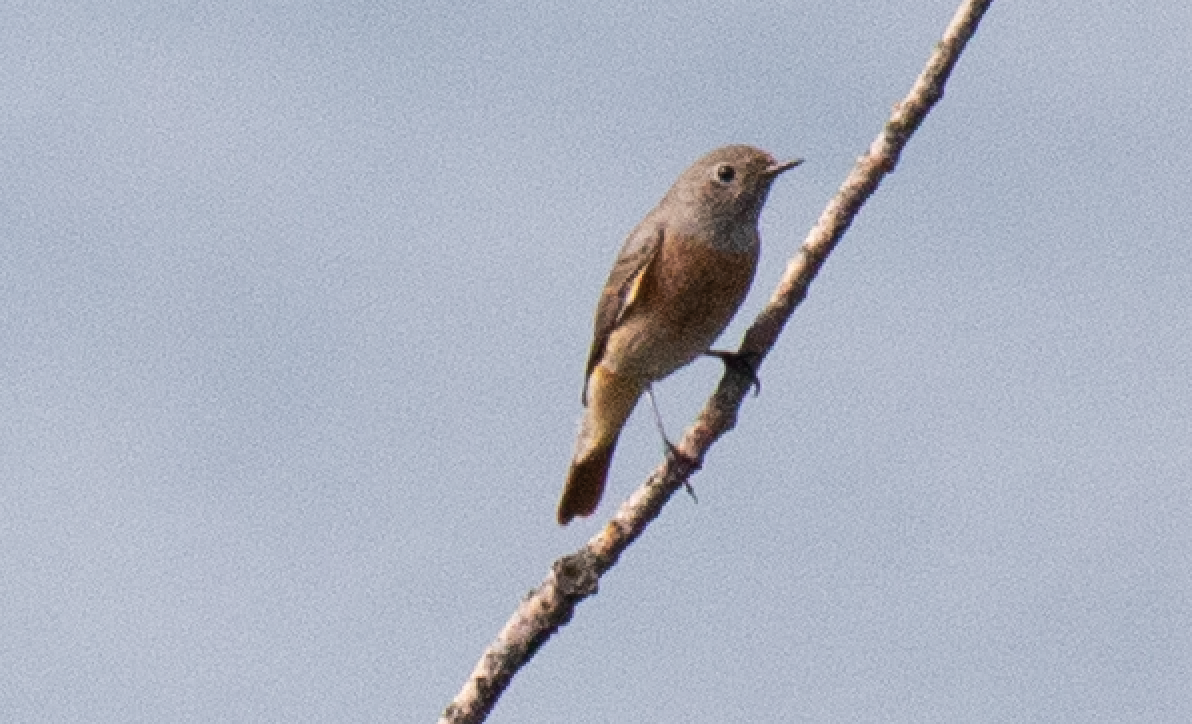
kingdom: Animalia
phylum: Chordata
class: Aves
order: Passeriformes
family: Muscicapidae
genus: Phoenicurus
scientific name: Phoenicurus phoenicurus
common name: Common redstart
